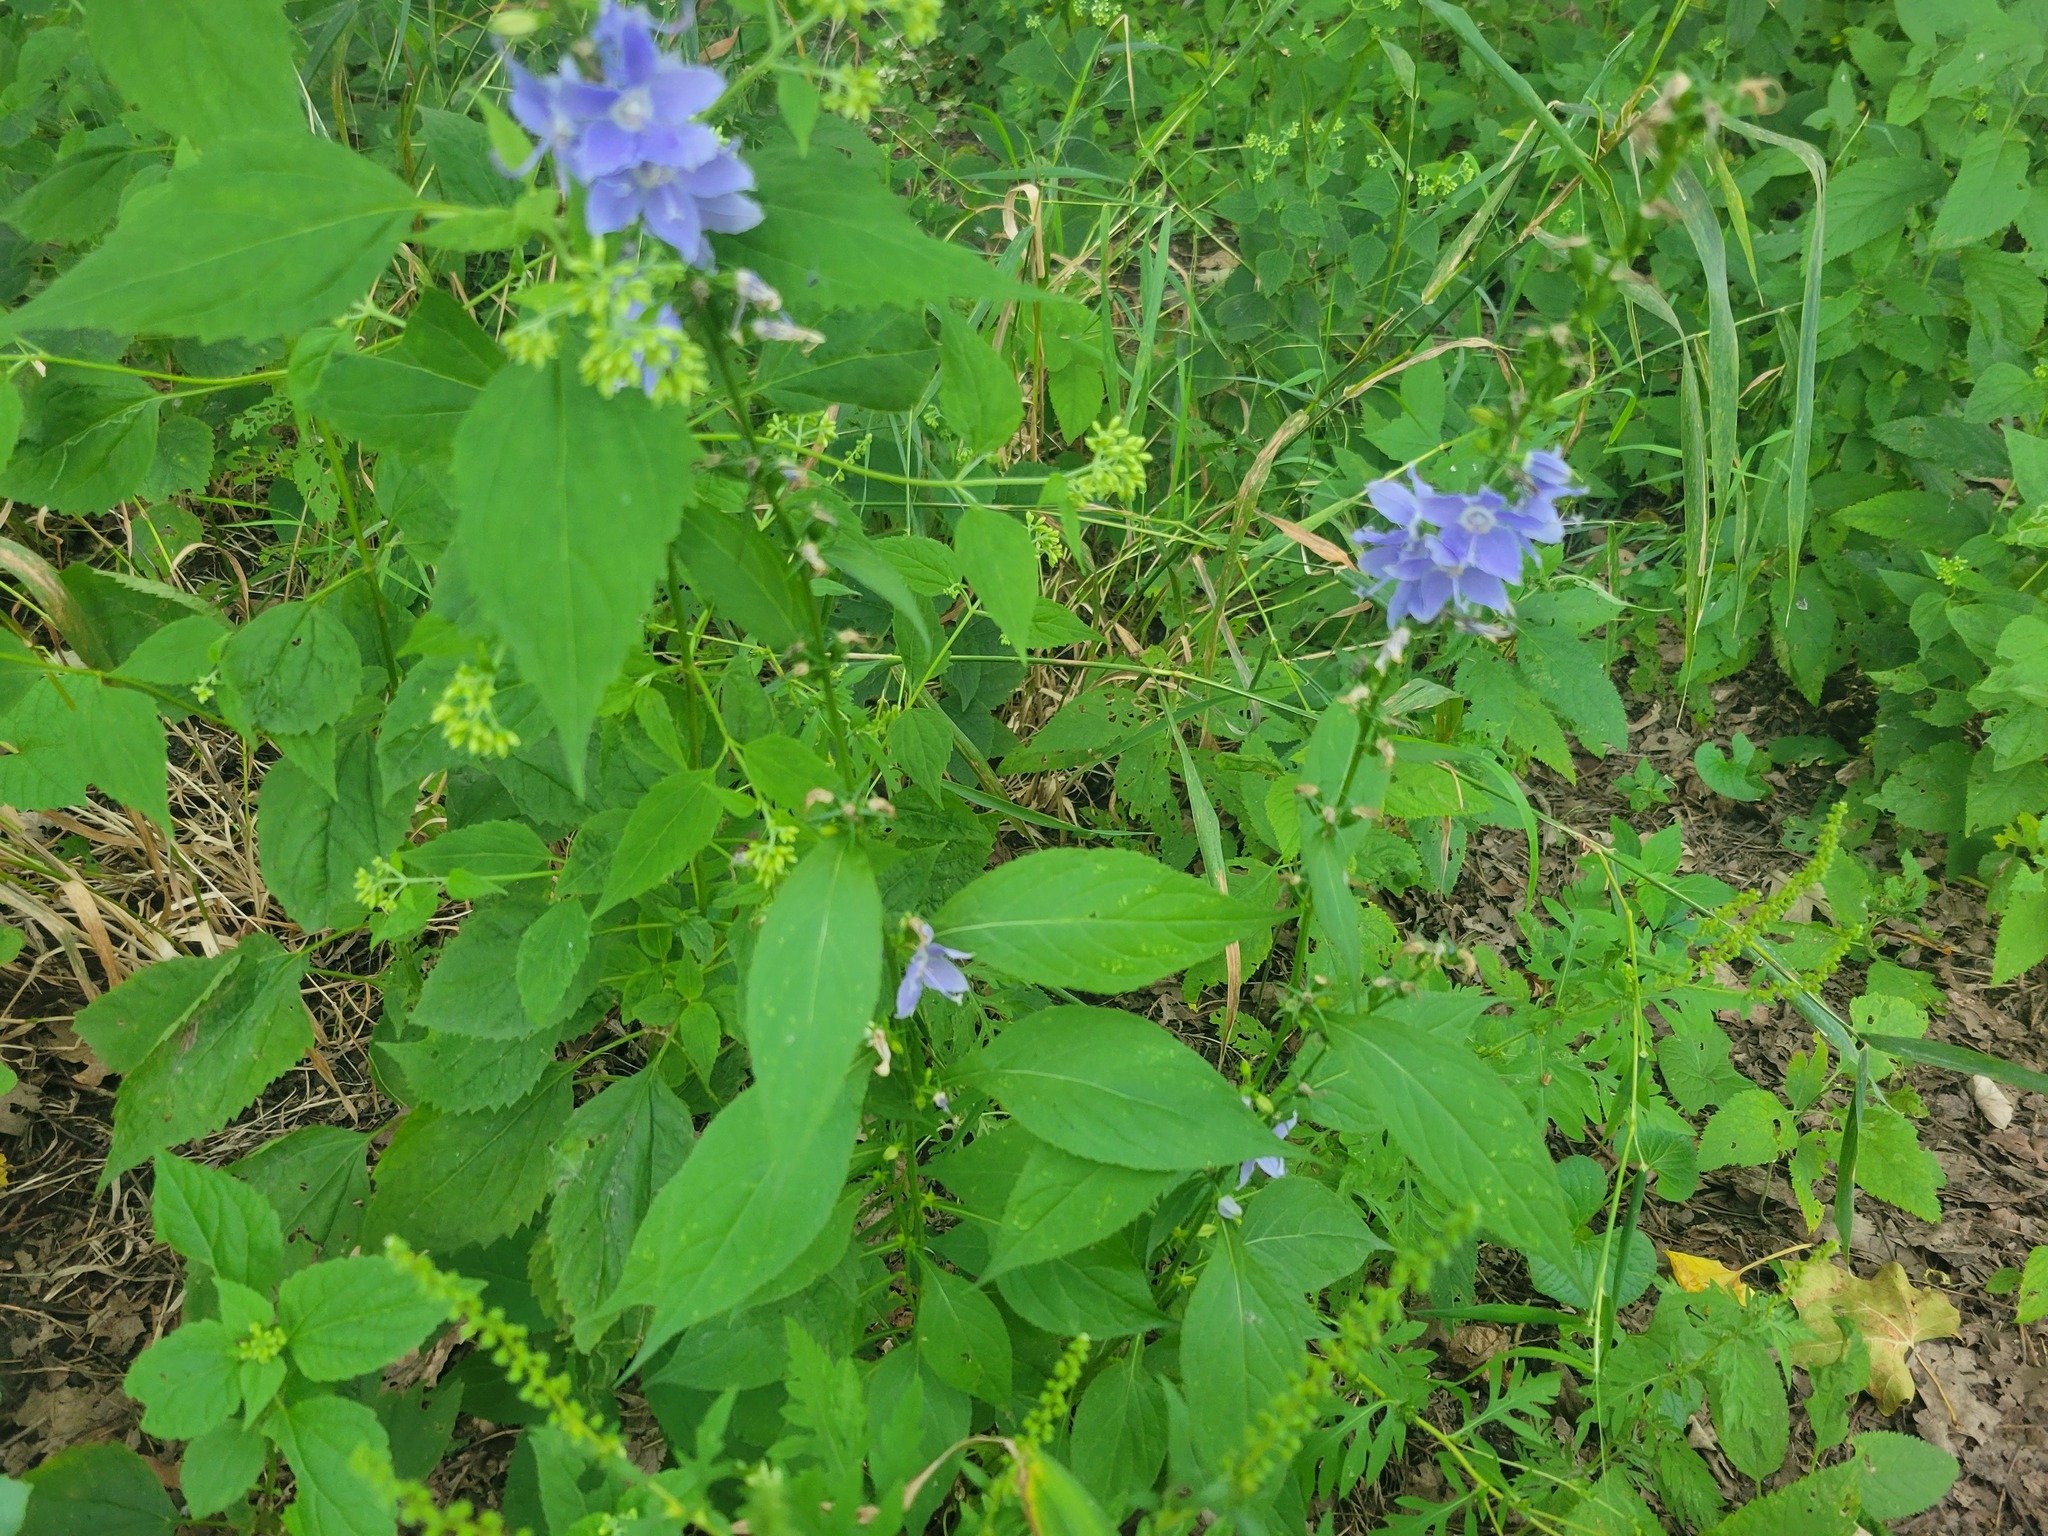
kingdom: Plantae
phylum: Tracheophyta
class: Magnoliopsida
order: Asterales
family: Campanulaceae
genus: Campanulastrum
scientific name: Campanulastrum americanum
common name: American bellflower
